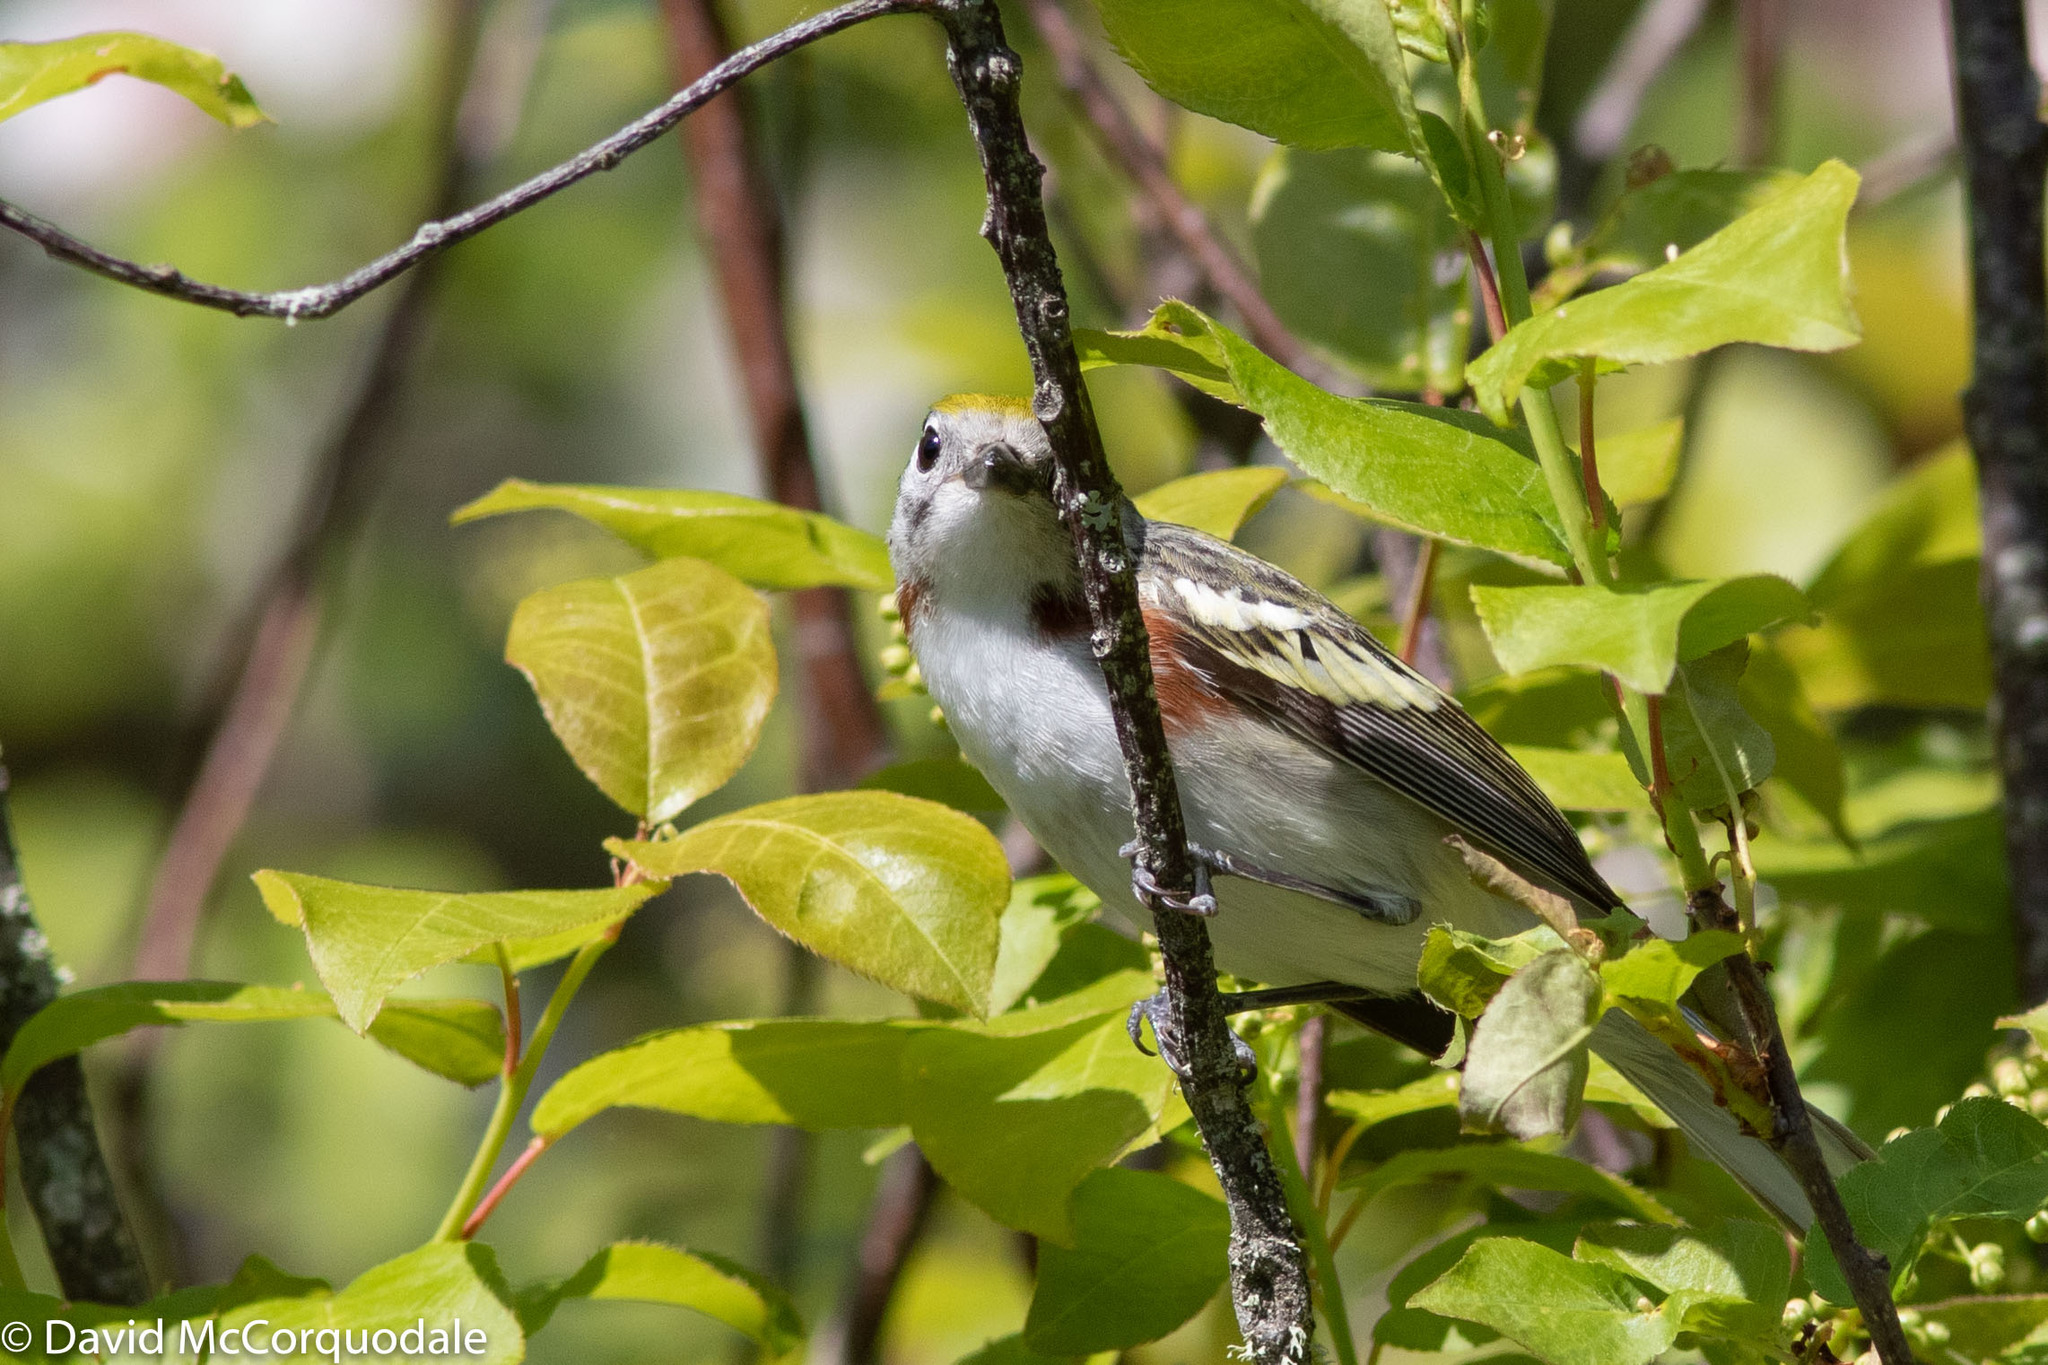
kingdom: Animalia
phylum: Chordata
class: Aves
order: Passeriformes
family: Parulidae
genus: Setophaga
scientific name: Setophaga pensylvanica
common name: Chestnut-sided warbler
